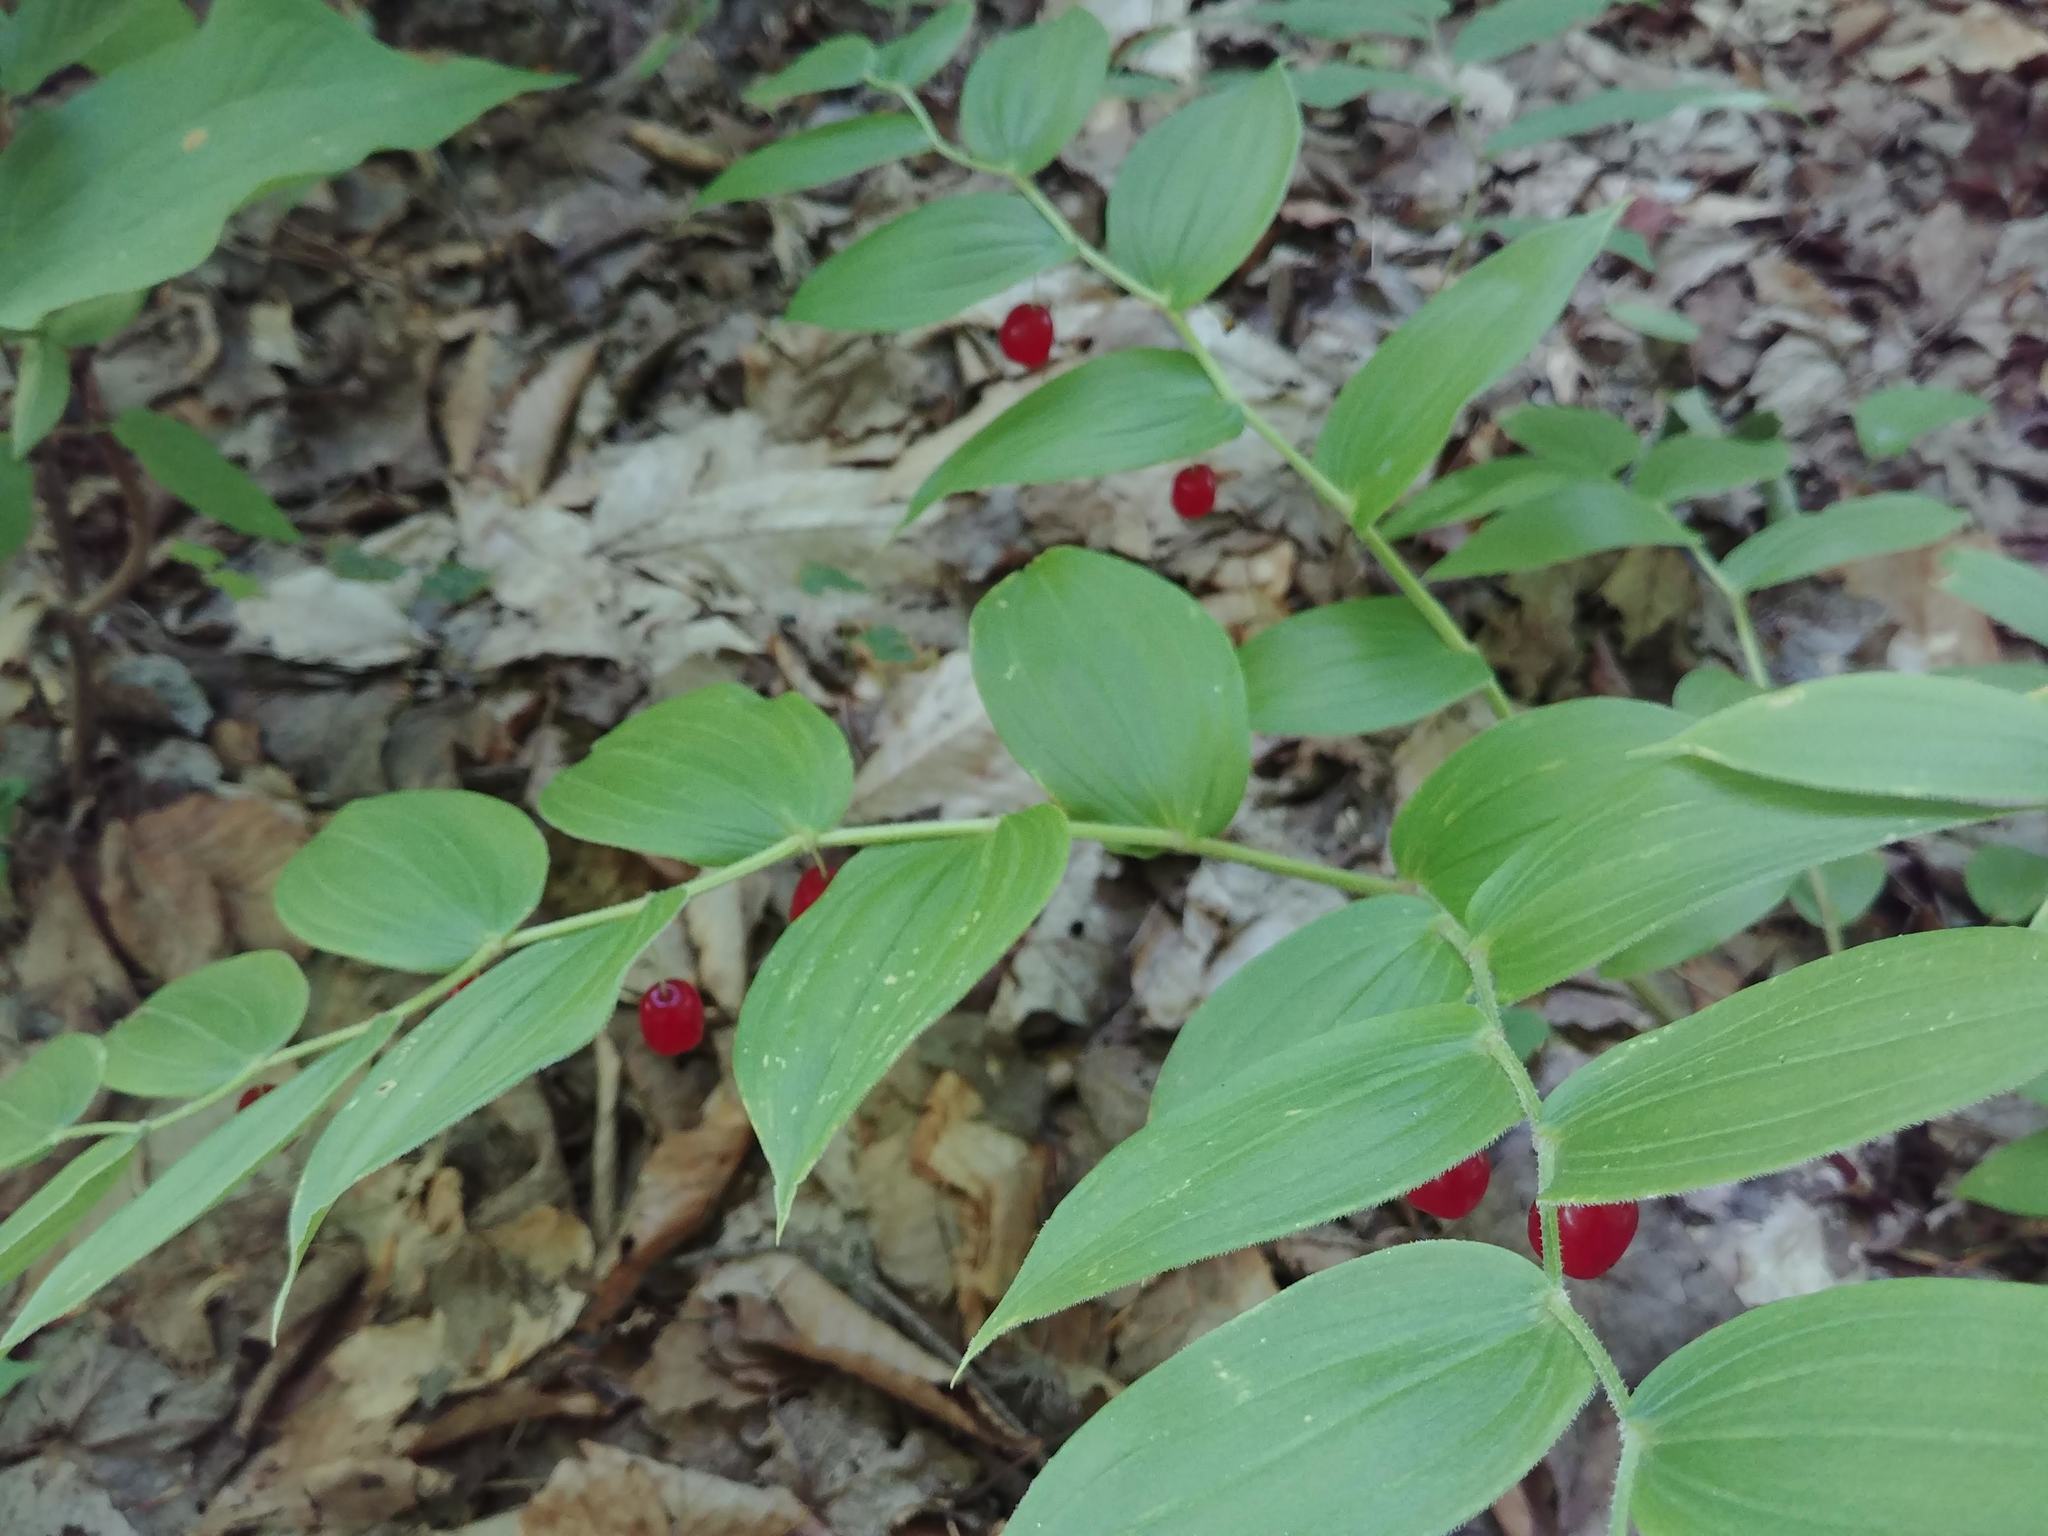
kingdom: Plantae
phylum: Tracheophyta
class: Liliopsida
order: Liliales
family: Liliaceae
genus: Streptopus
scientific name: Streptopus lanceolatus
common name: Rose mandarin
